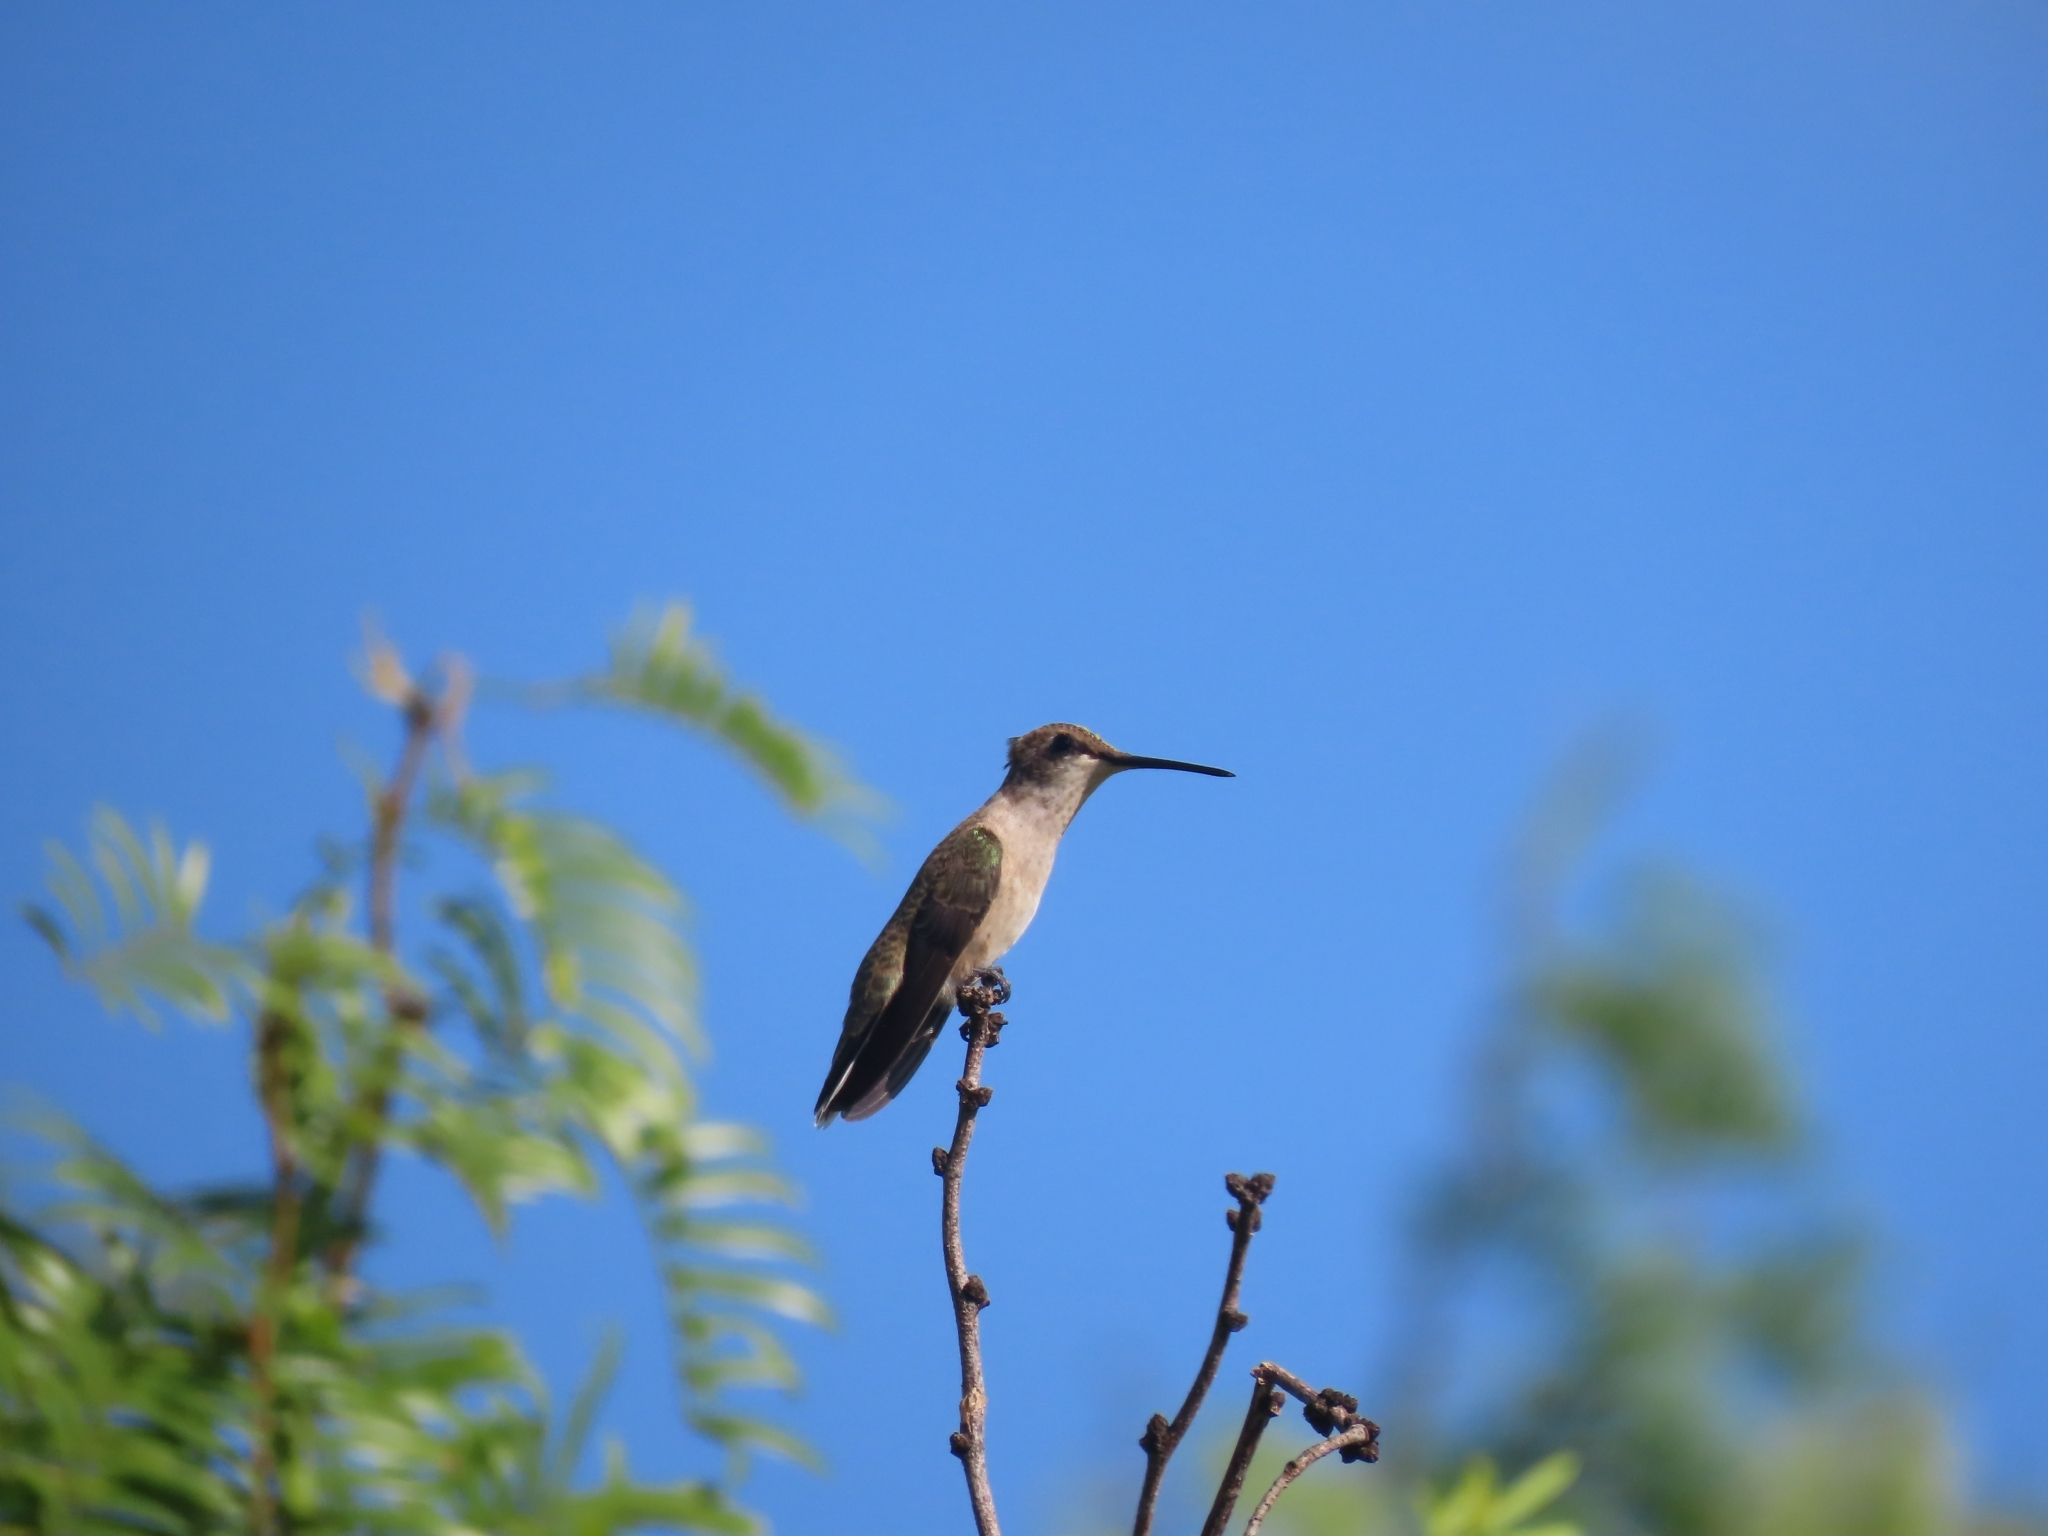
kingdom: Animalia
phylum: Chordata
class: Aves
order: Apodiformes
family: Trochilidae
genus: Archilochus
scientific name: Archilochus alexandri
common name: Black-chinned hummingbird
